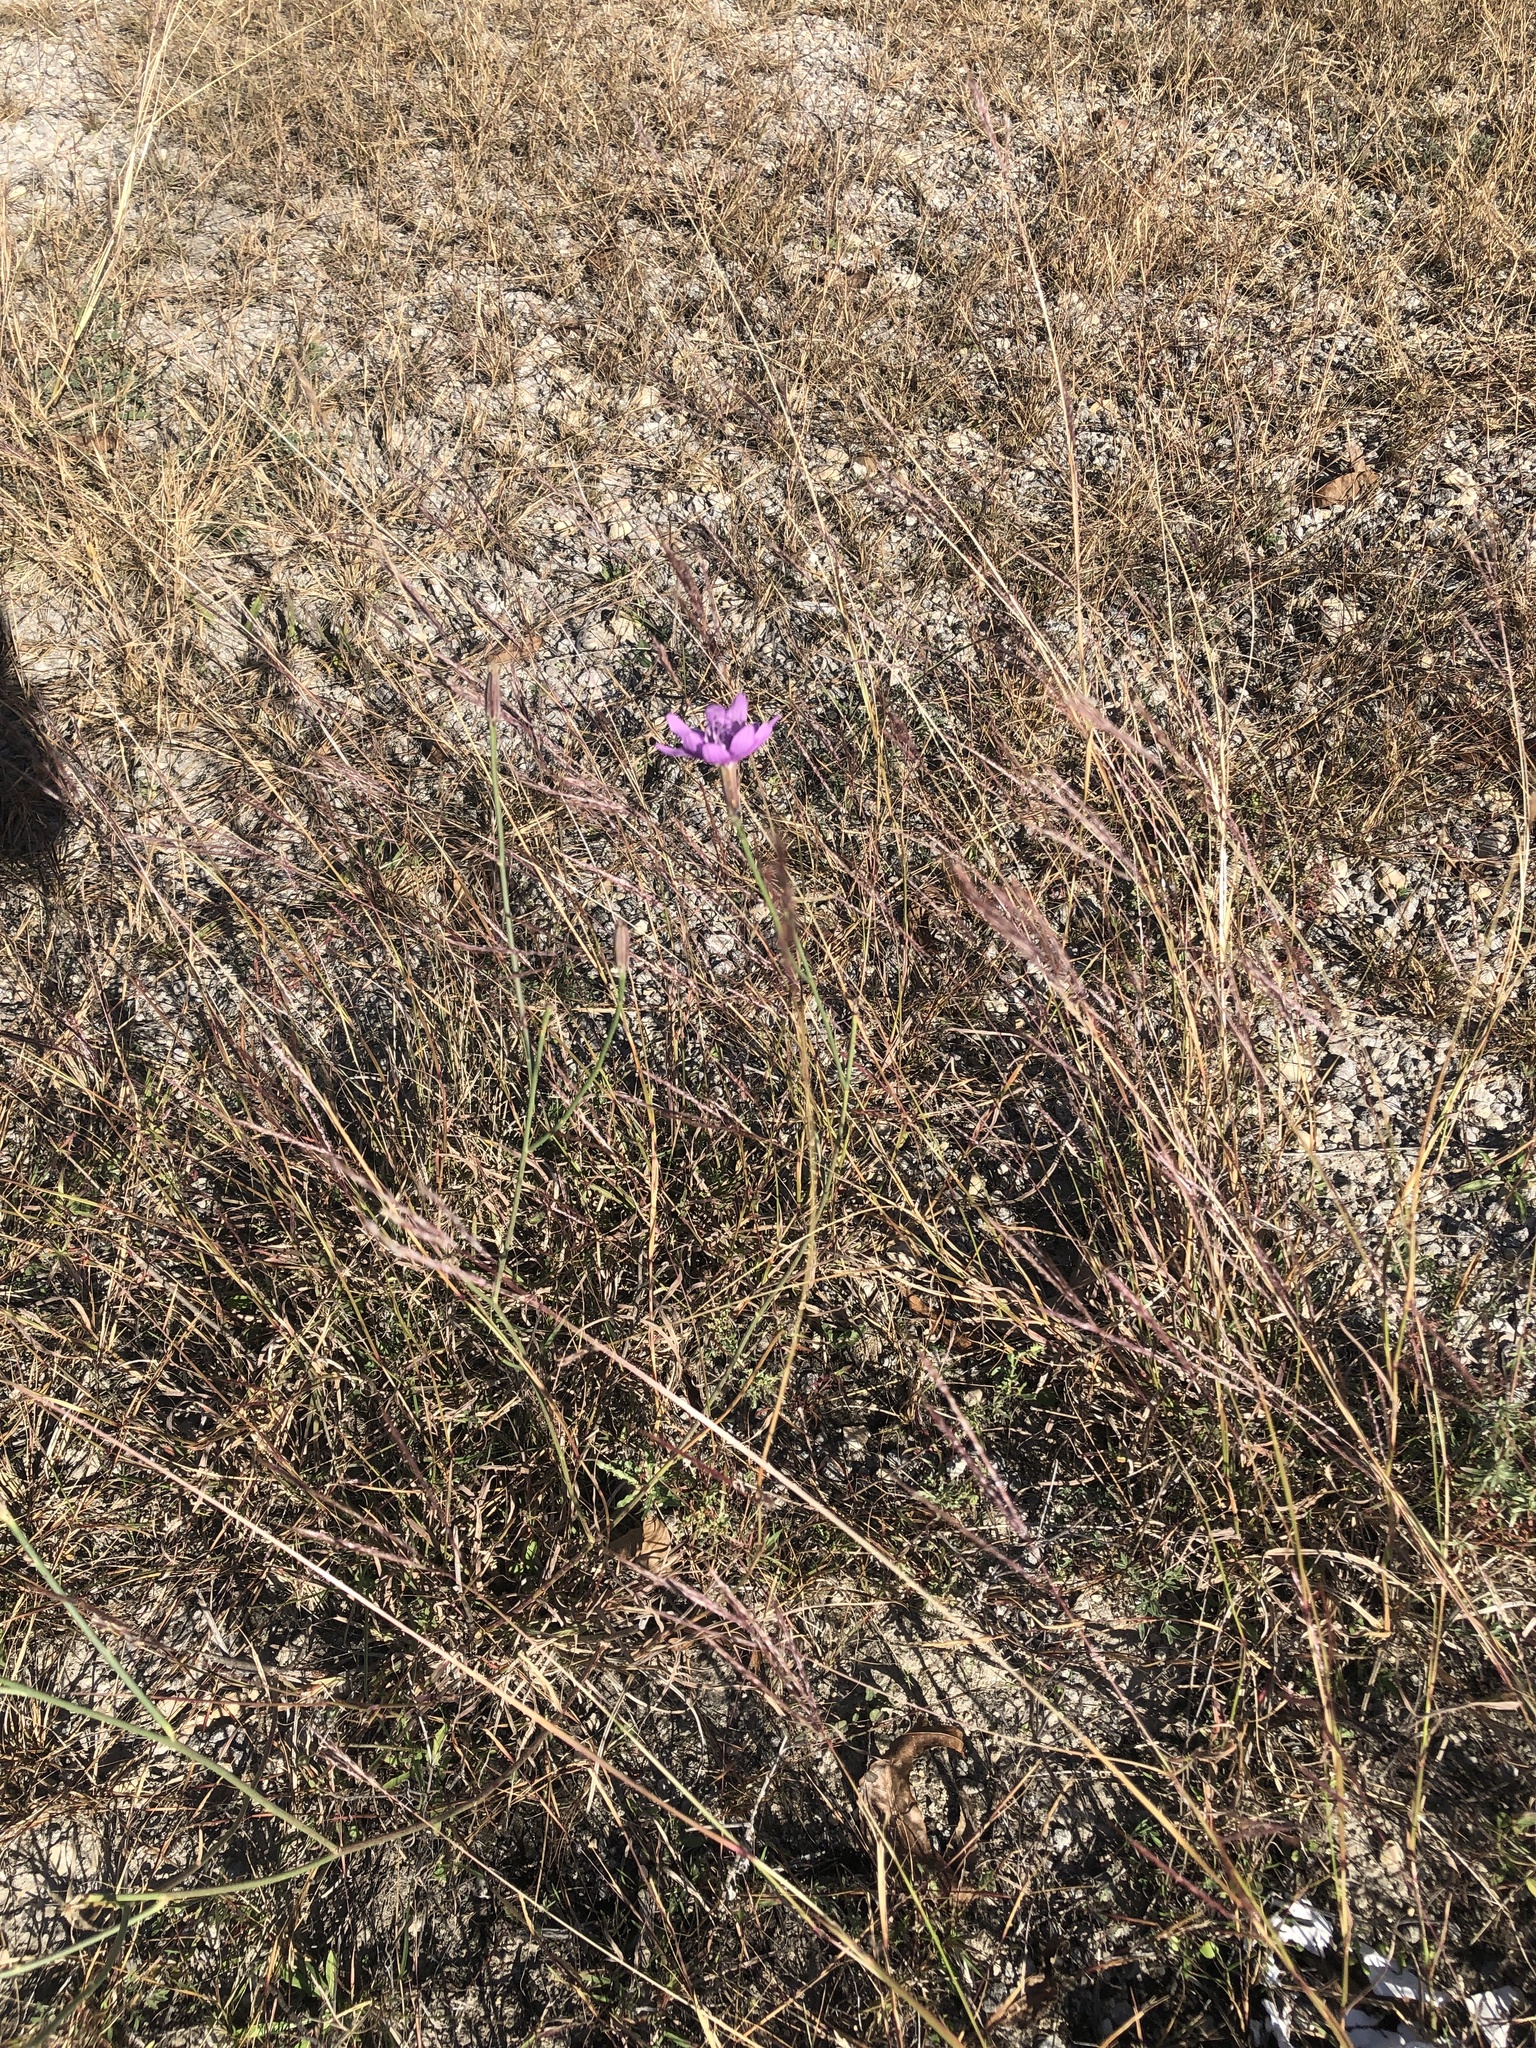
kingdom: Plantae
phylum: Tracheophyta
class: Magnoliopsida
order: Asterales
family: Asteraceae
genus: Lygodesmia
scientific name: Lygodesmia texana
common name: Texas skeleton-plant
